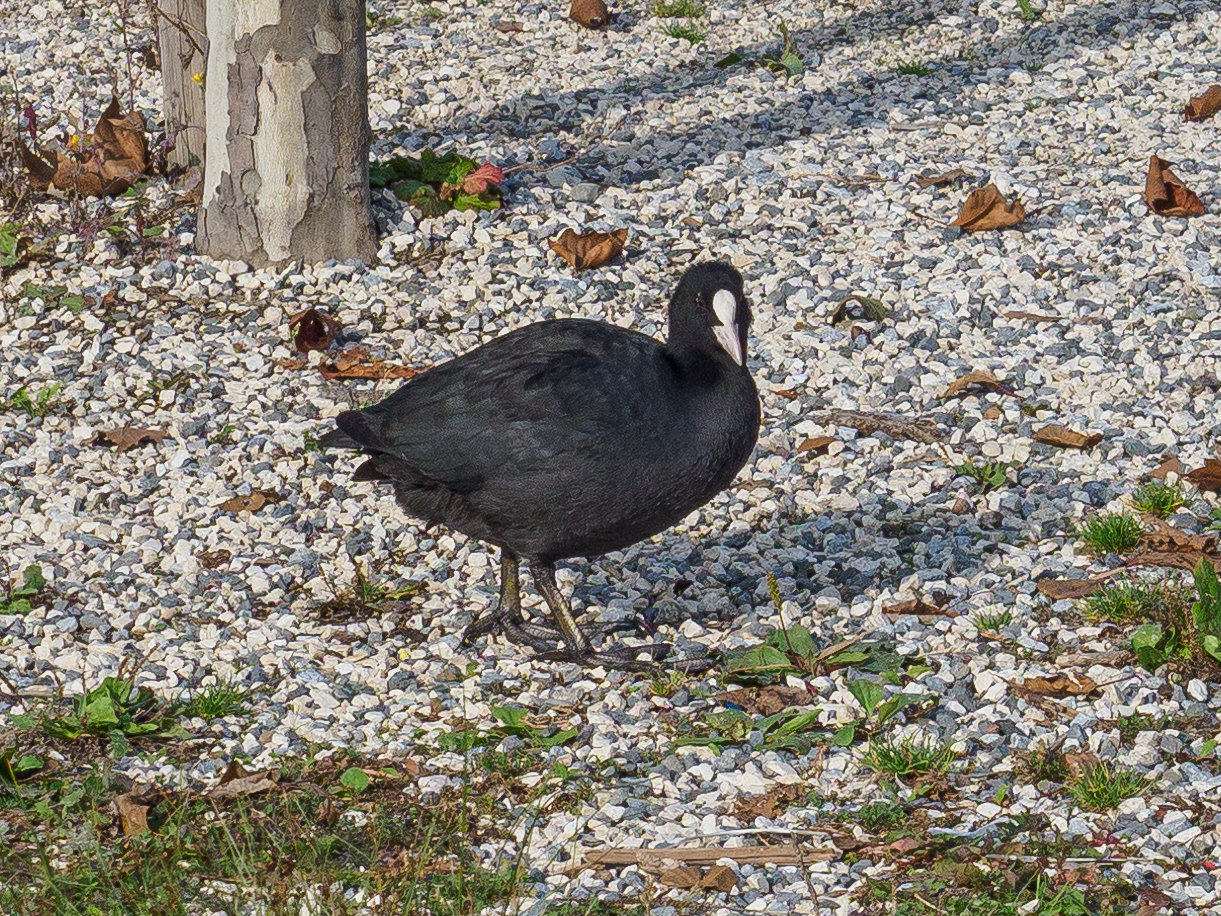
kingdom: Animalia
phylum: Chordata
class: Aves
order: Gruiformes
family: Rallidae
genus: Fulica
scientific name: Fulica atra
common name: Eurasian coot
